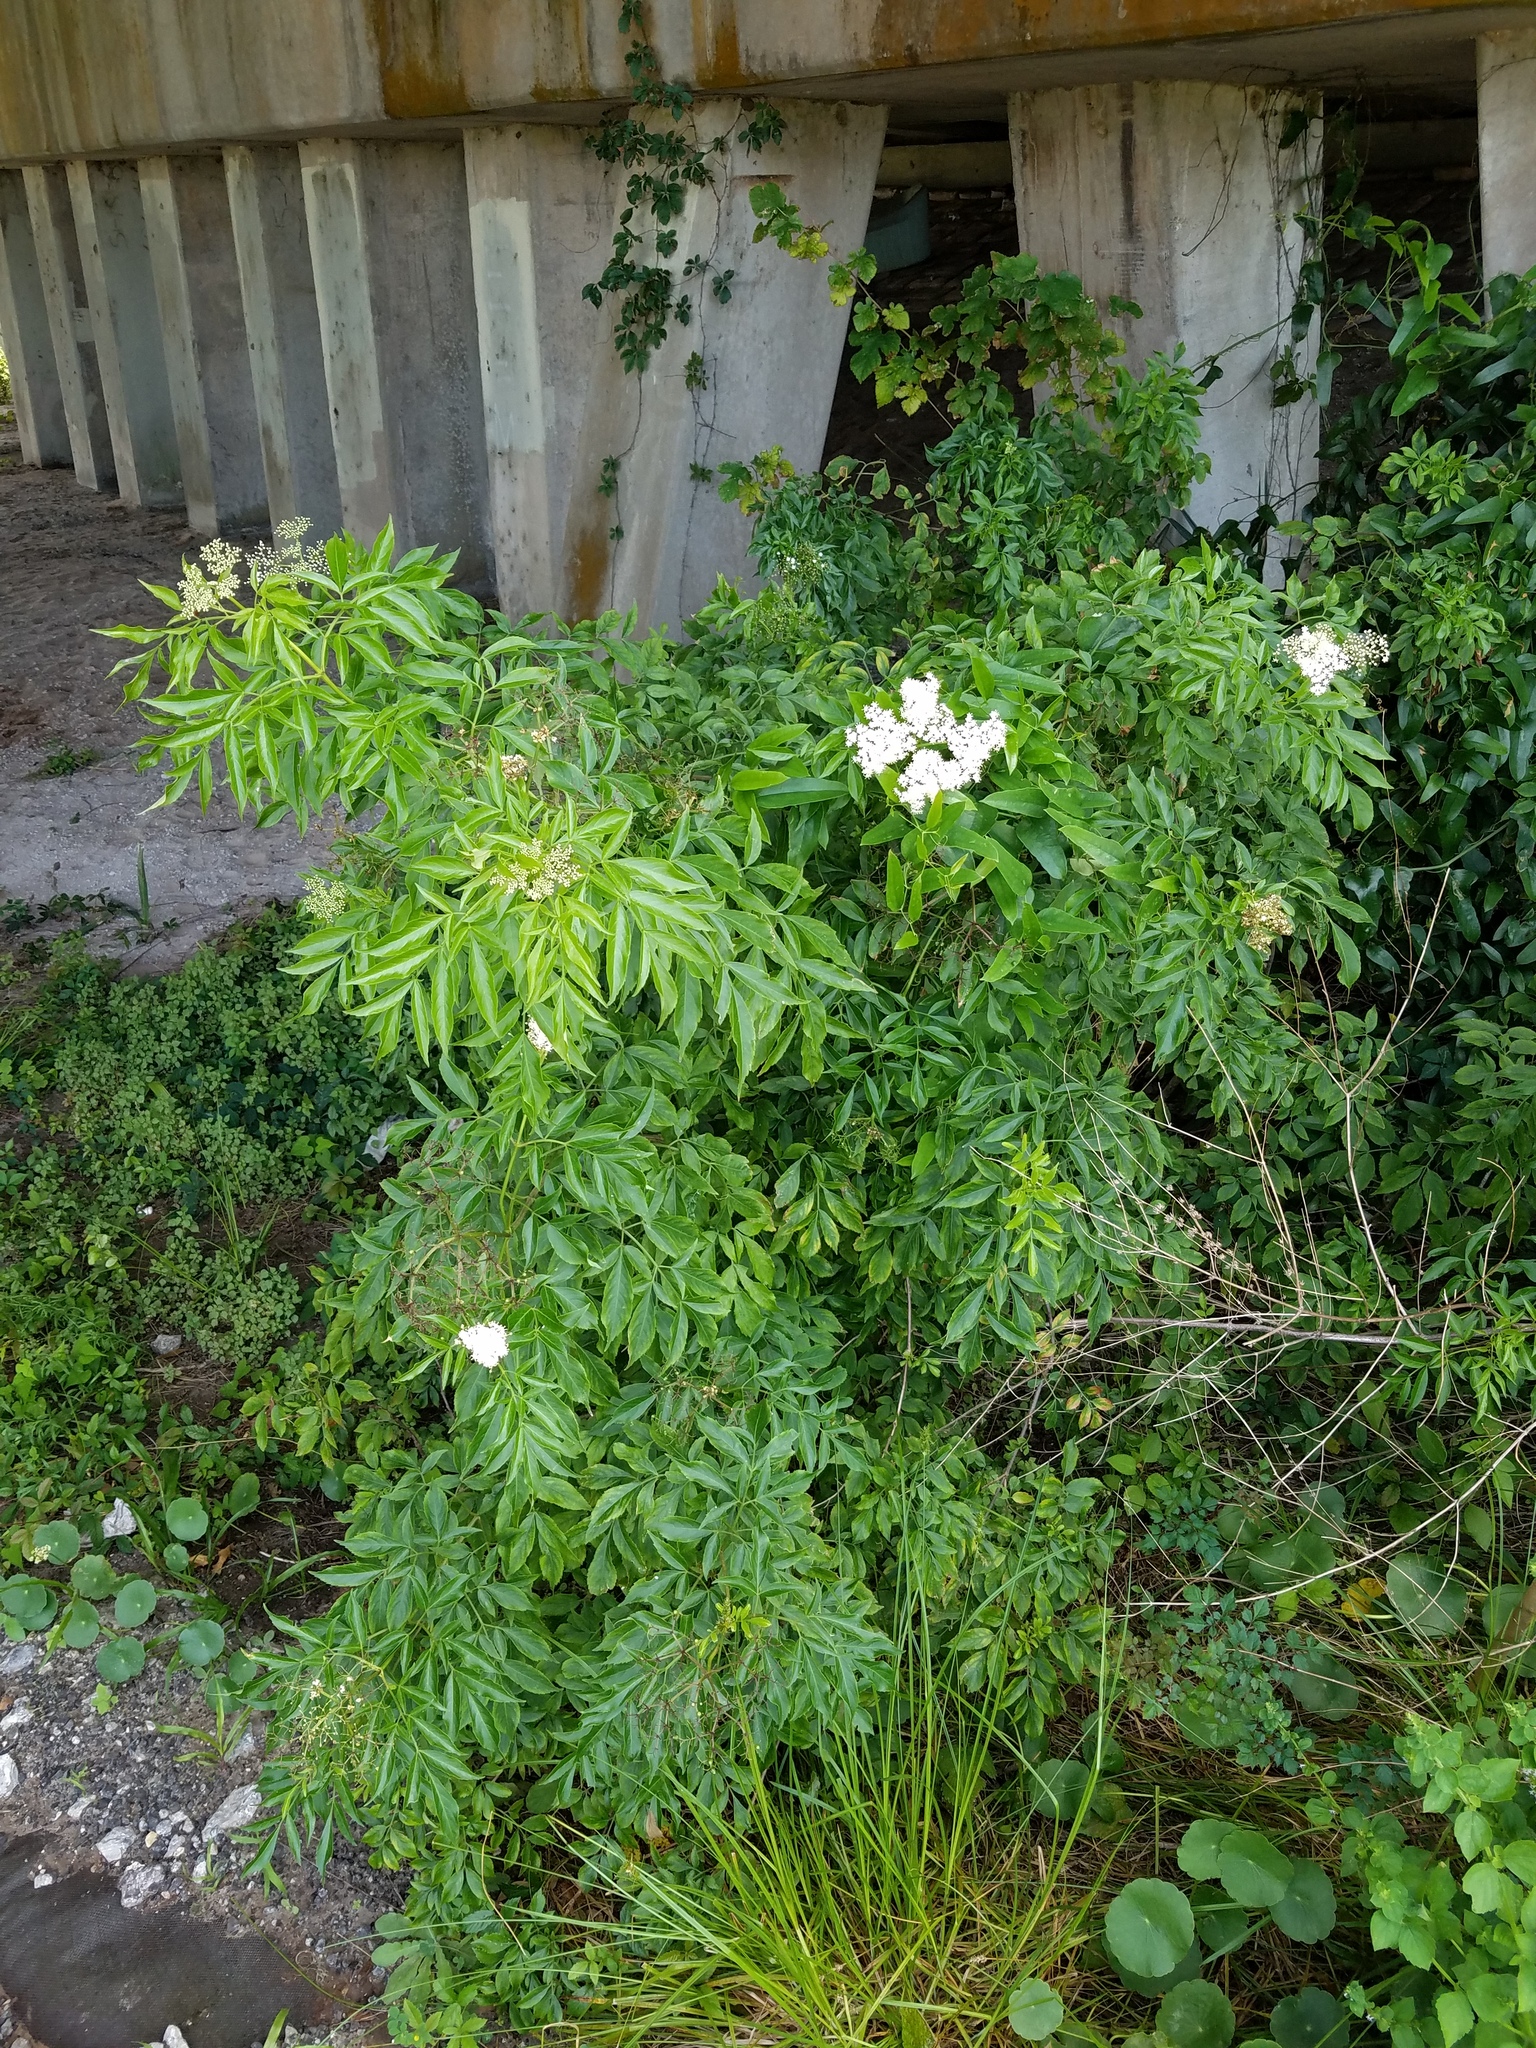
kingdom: Plantae
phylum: Tracheophyta
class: Magnoliopsida
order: Dipsacales
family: Viburnaceae
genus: Sambucus
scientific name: Sambucus canadensis
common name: American elder
